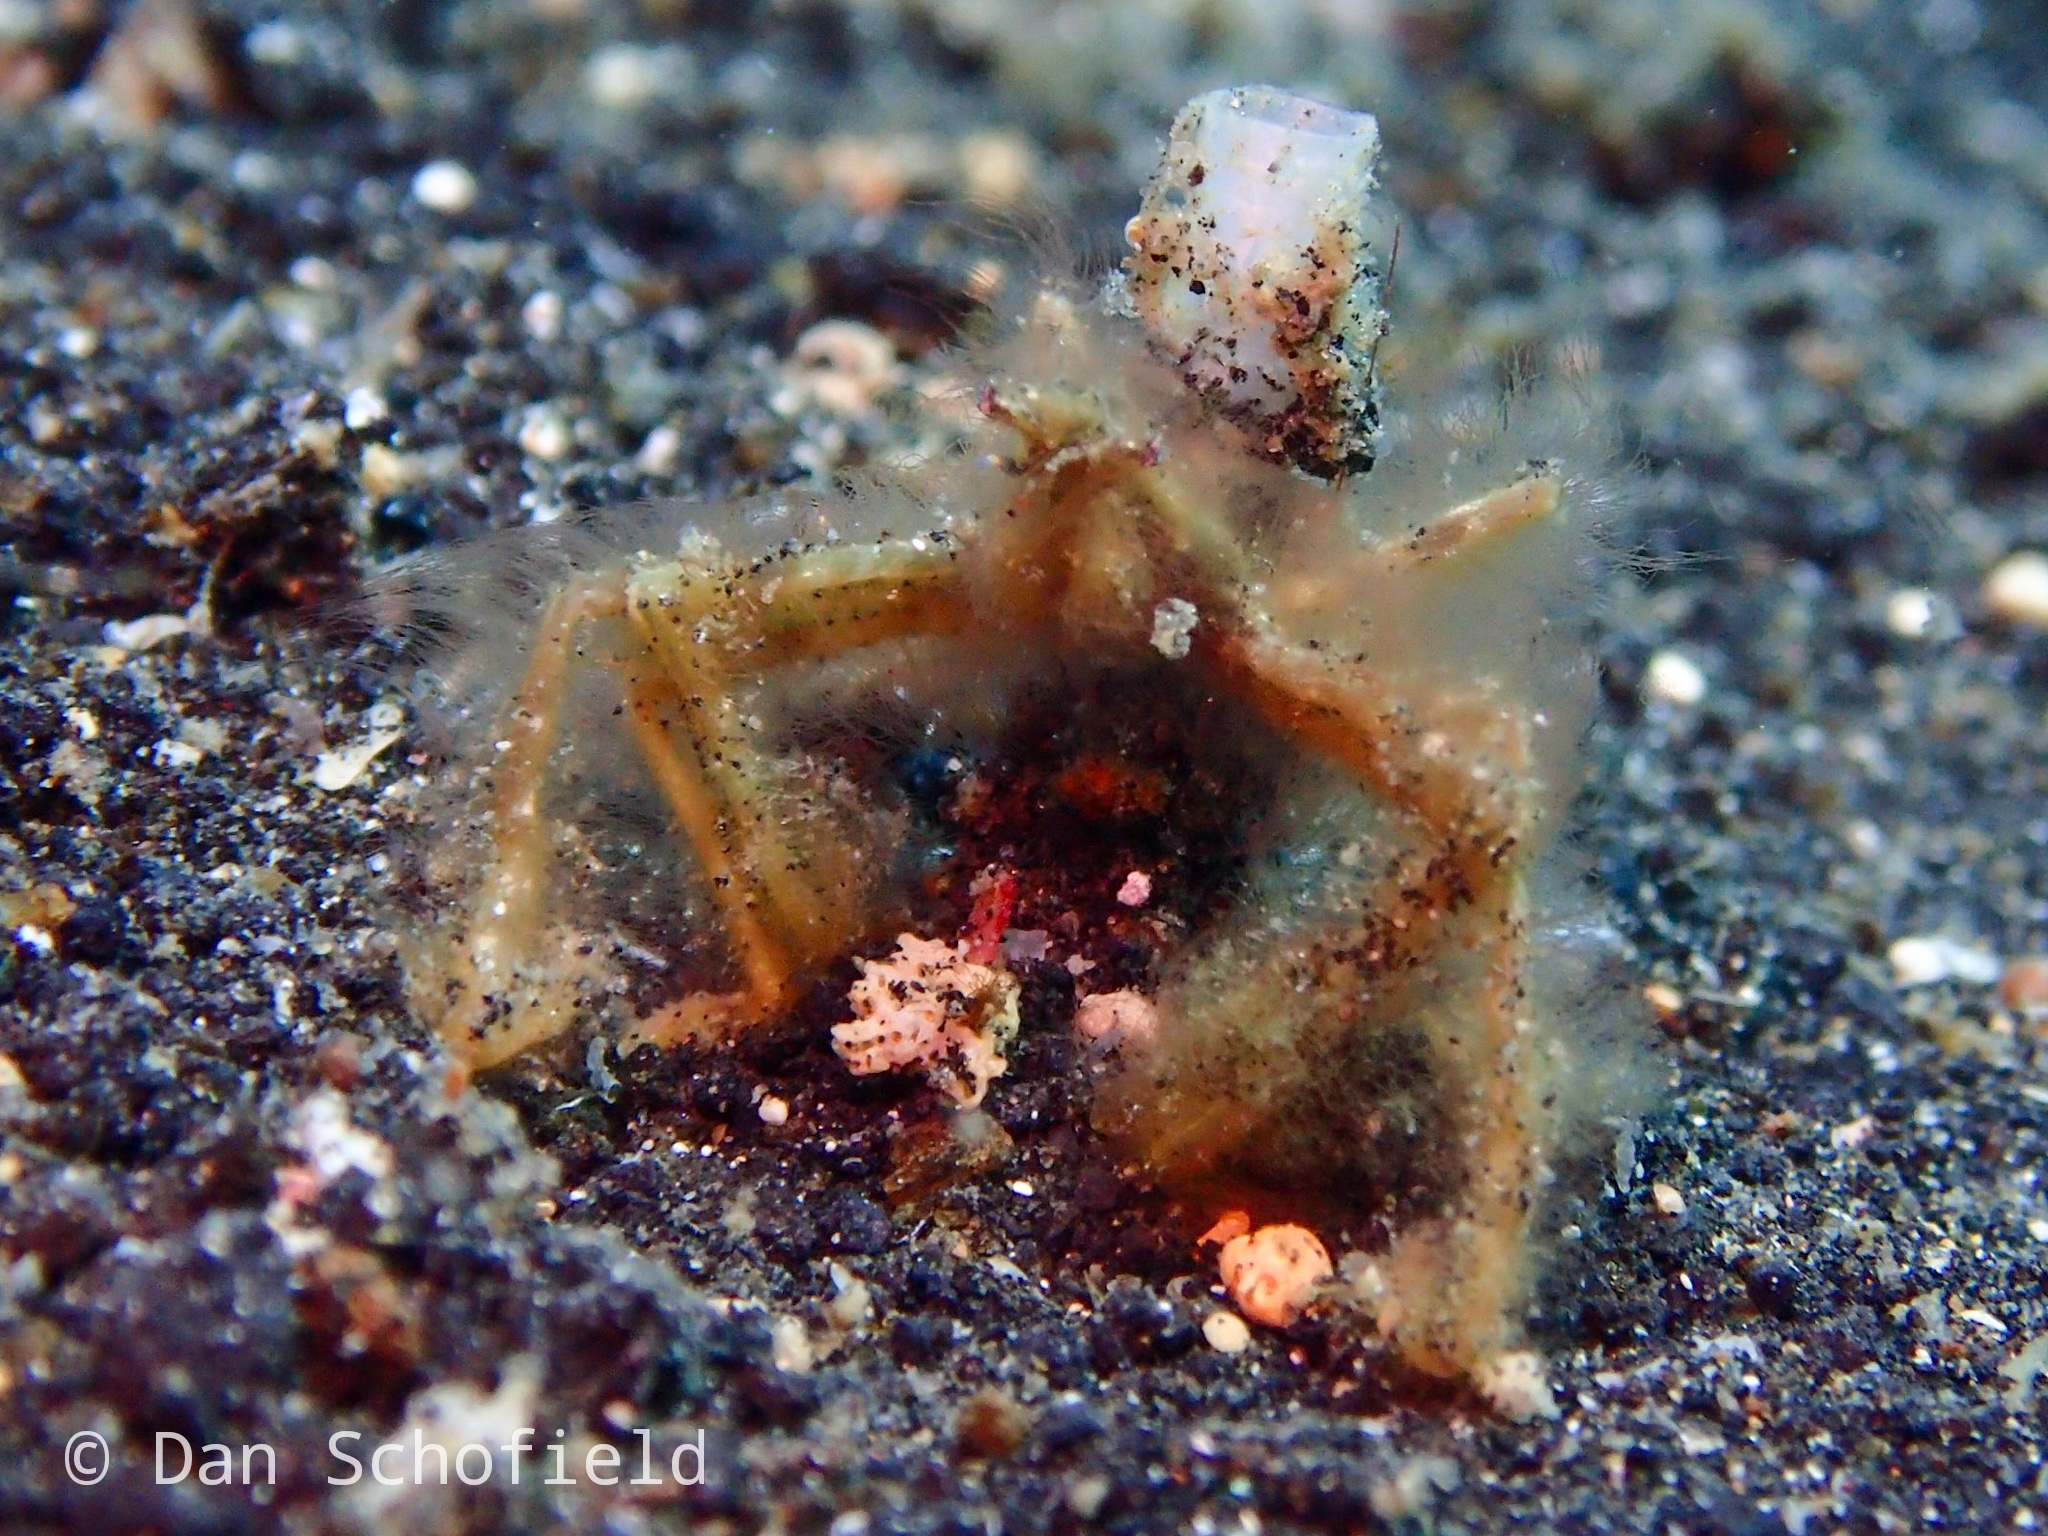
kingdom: Animalia
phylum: Arthropoda
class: Malacostraca
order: Decapoda
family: Inachidae
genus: Achaeus
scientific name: Achaeus japonicus
